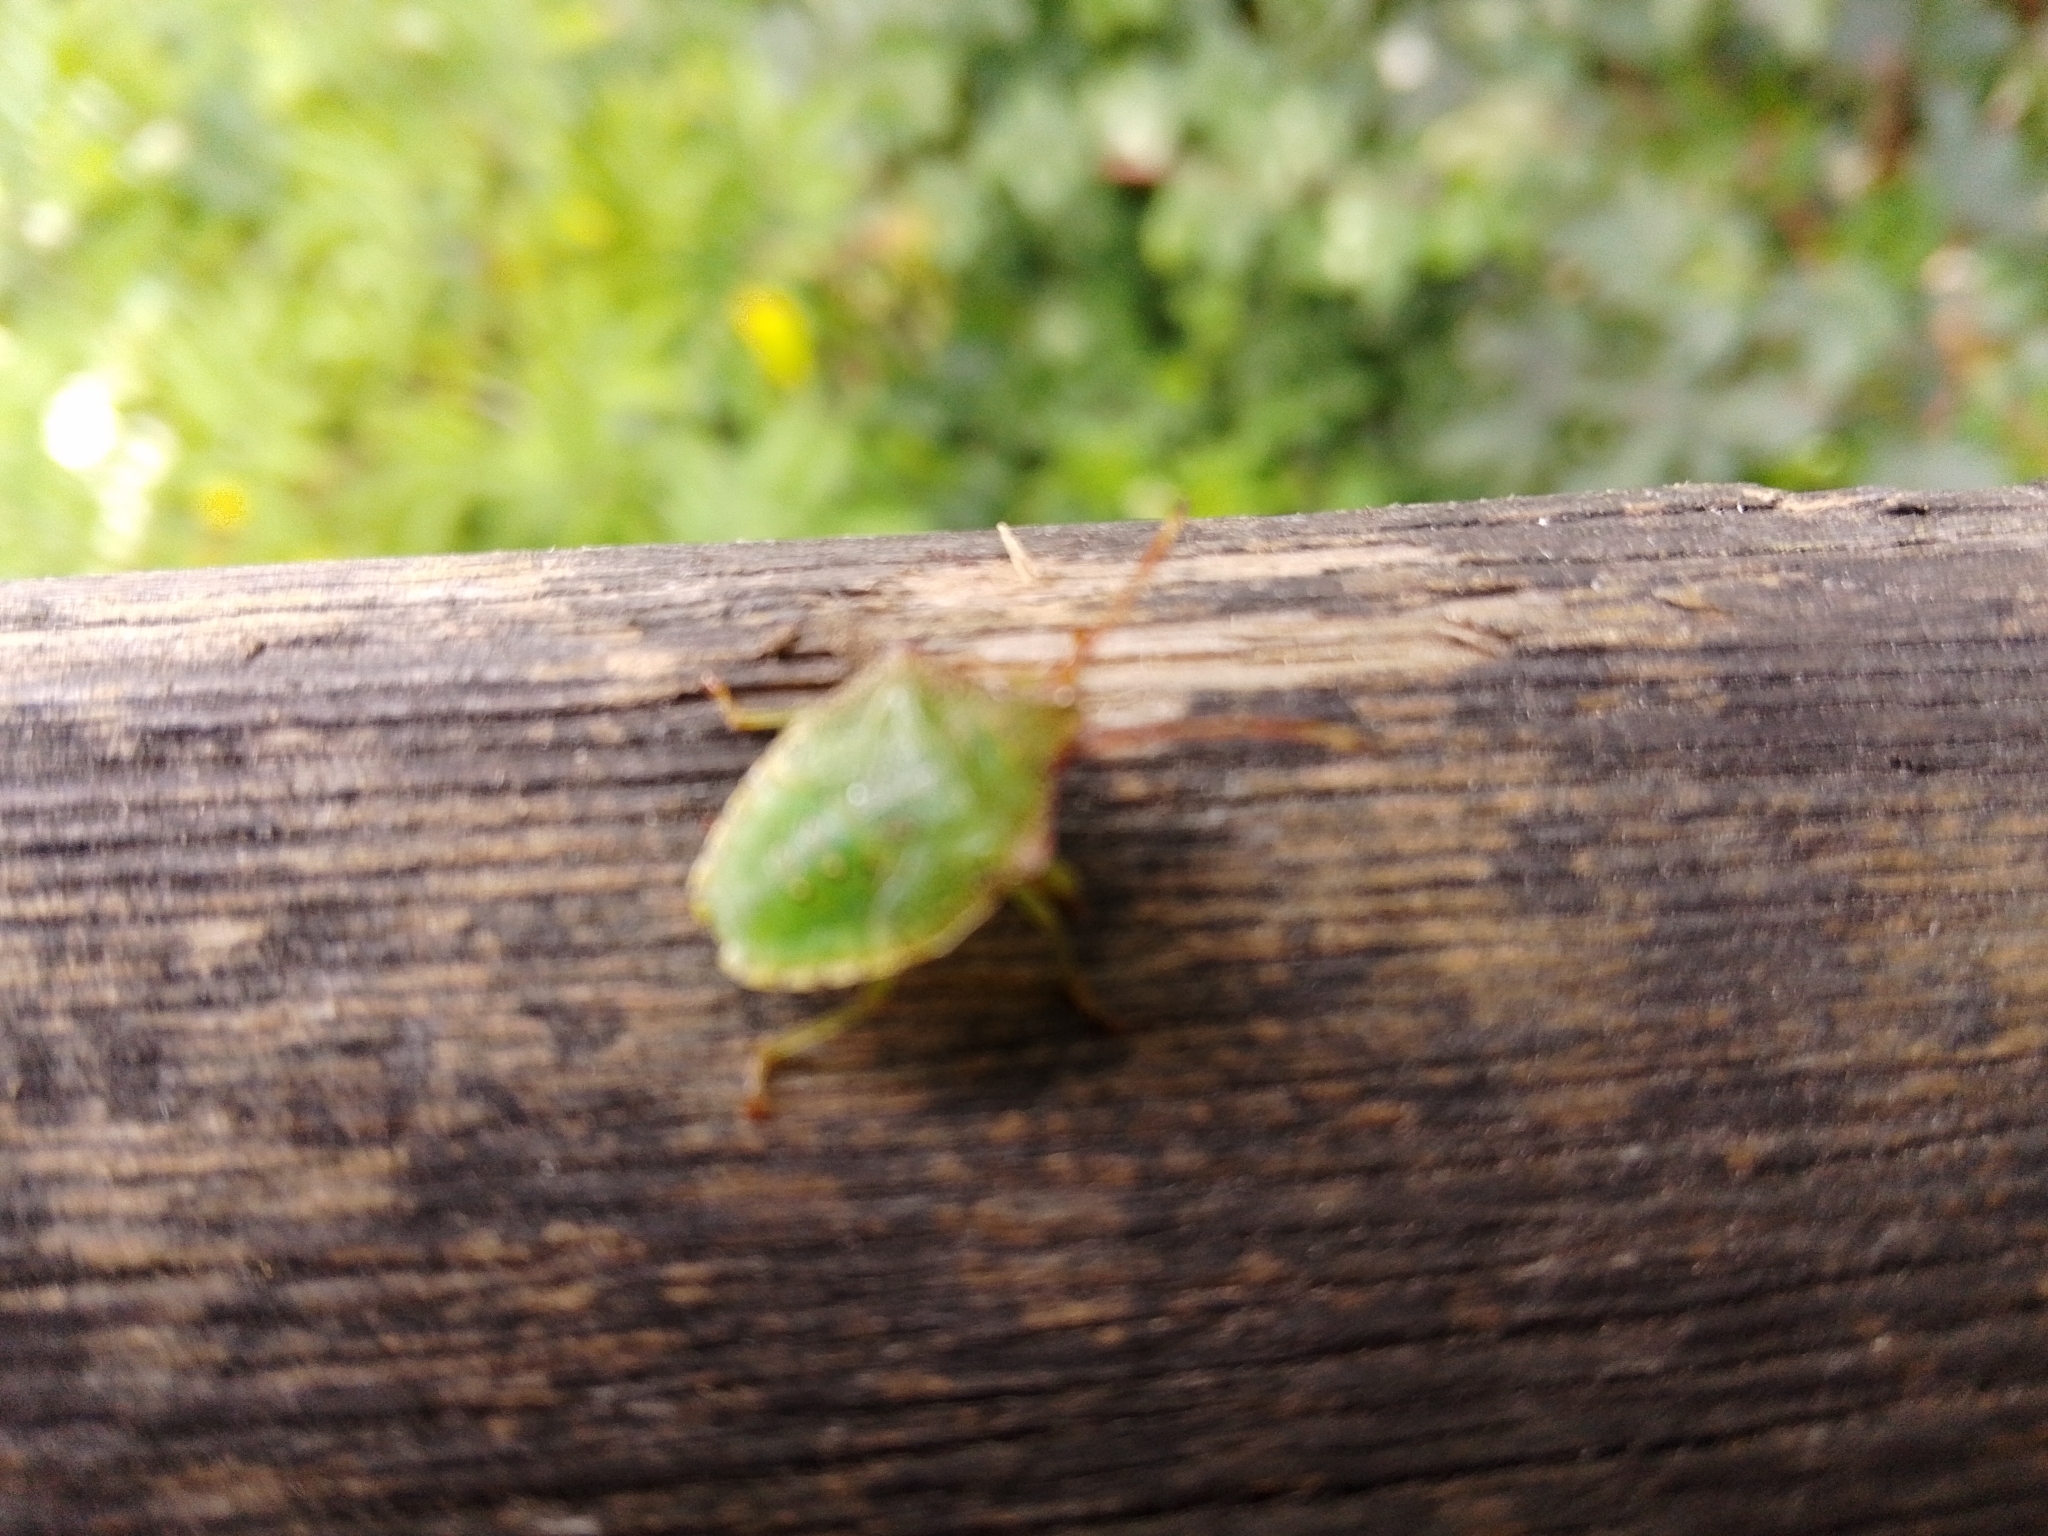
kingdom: Animalia
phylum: Arthropoda
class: Insecta
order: Hemiptera
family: Acanthosomatidae
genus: Acanthosoma
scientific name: Acanthosoma haemorrhoidale
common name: Hawthorn shieldbug
